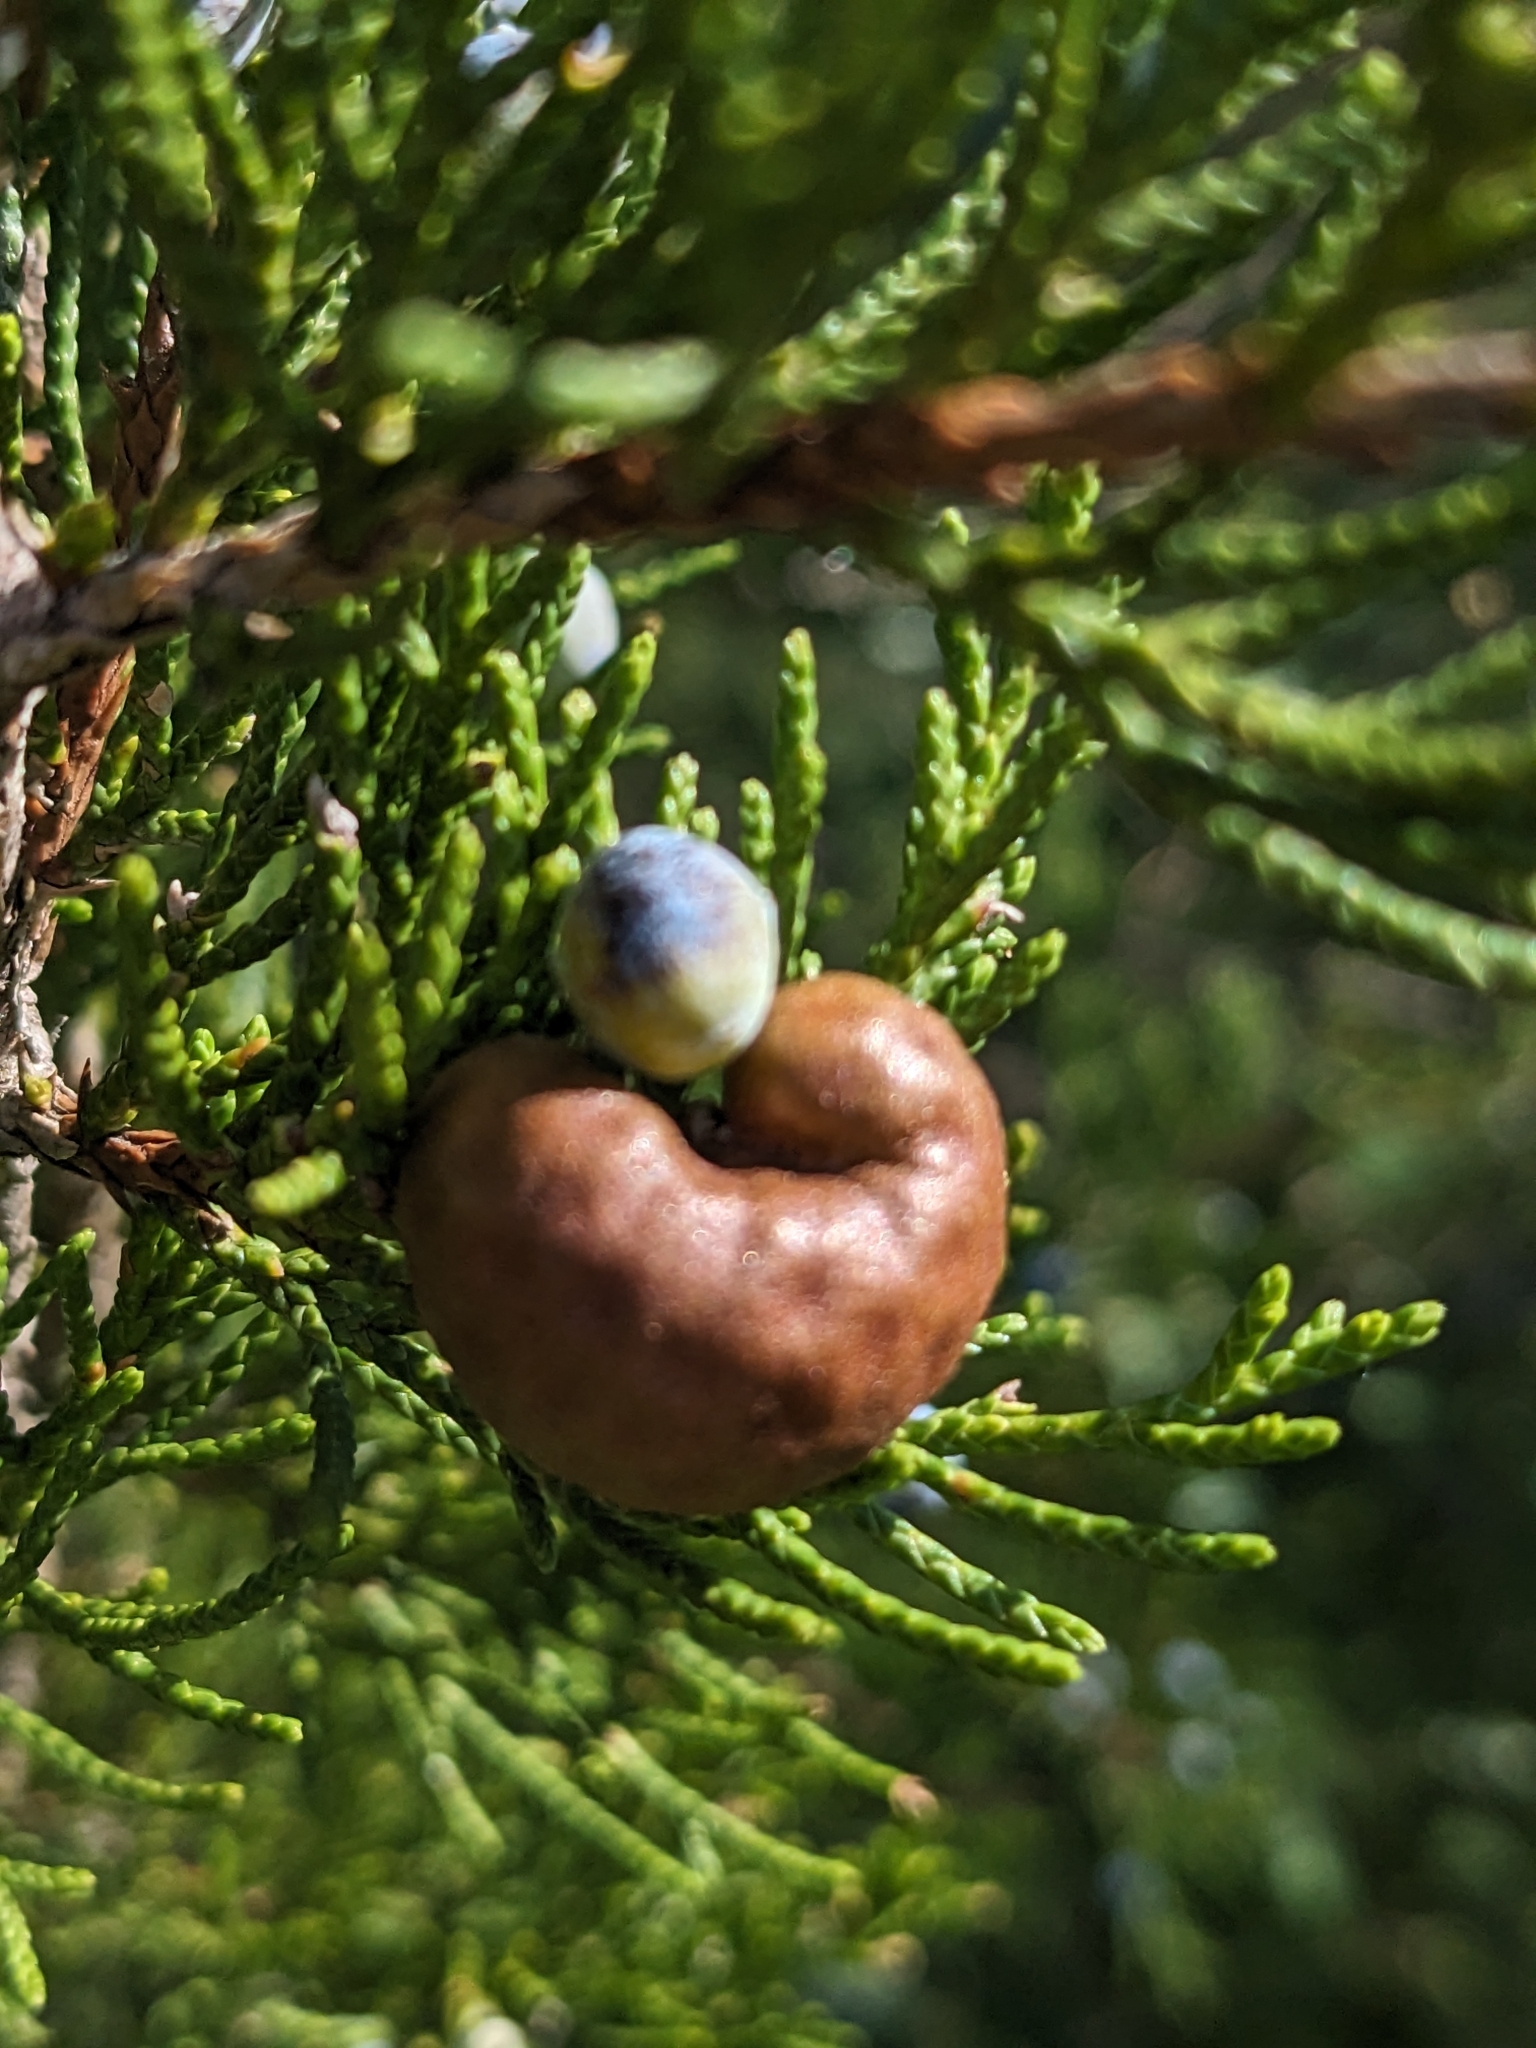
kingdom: Fungi
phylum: Basidiomycota
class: Pucciniomycetes
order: Pucciniales
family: Gymnosporangiaceae
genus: Gymnosporangium
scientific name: Gymnosporangium juniperi-virginianae
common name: Juniper-apple rust
